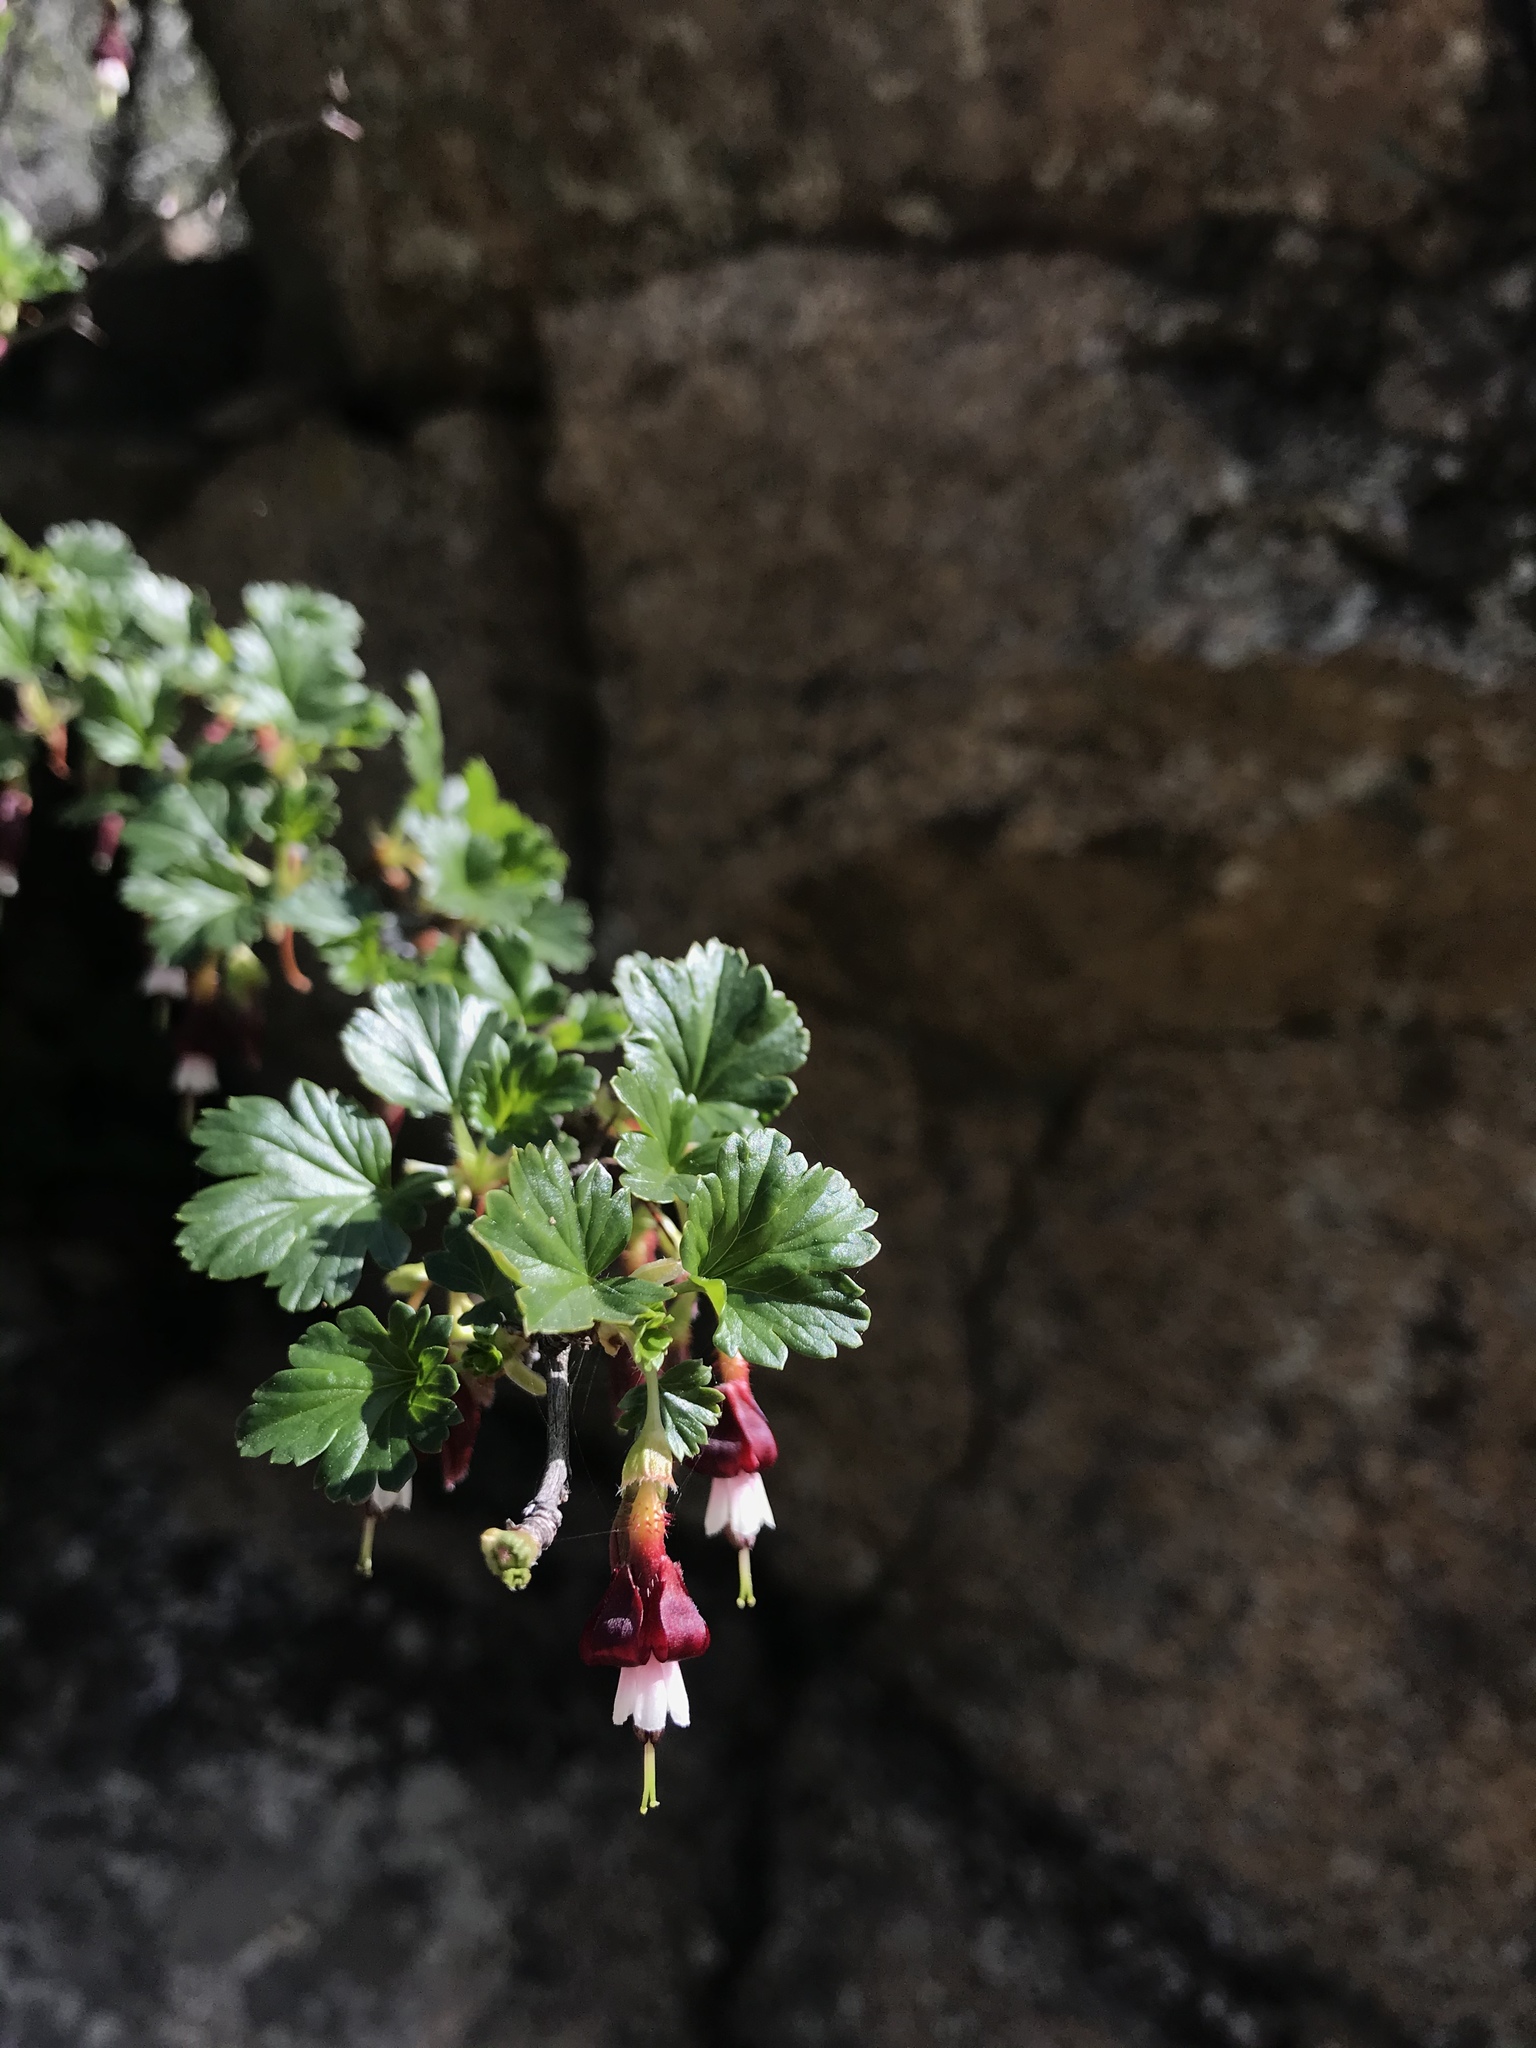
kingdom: Plantae
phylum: Tracheophyta
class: Magnoliopsida
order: Saxifragales
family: Grossulariaceae
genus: Ribes
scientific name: Ribes roezlii
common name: Sierra gooseberry
